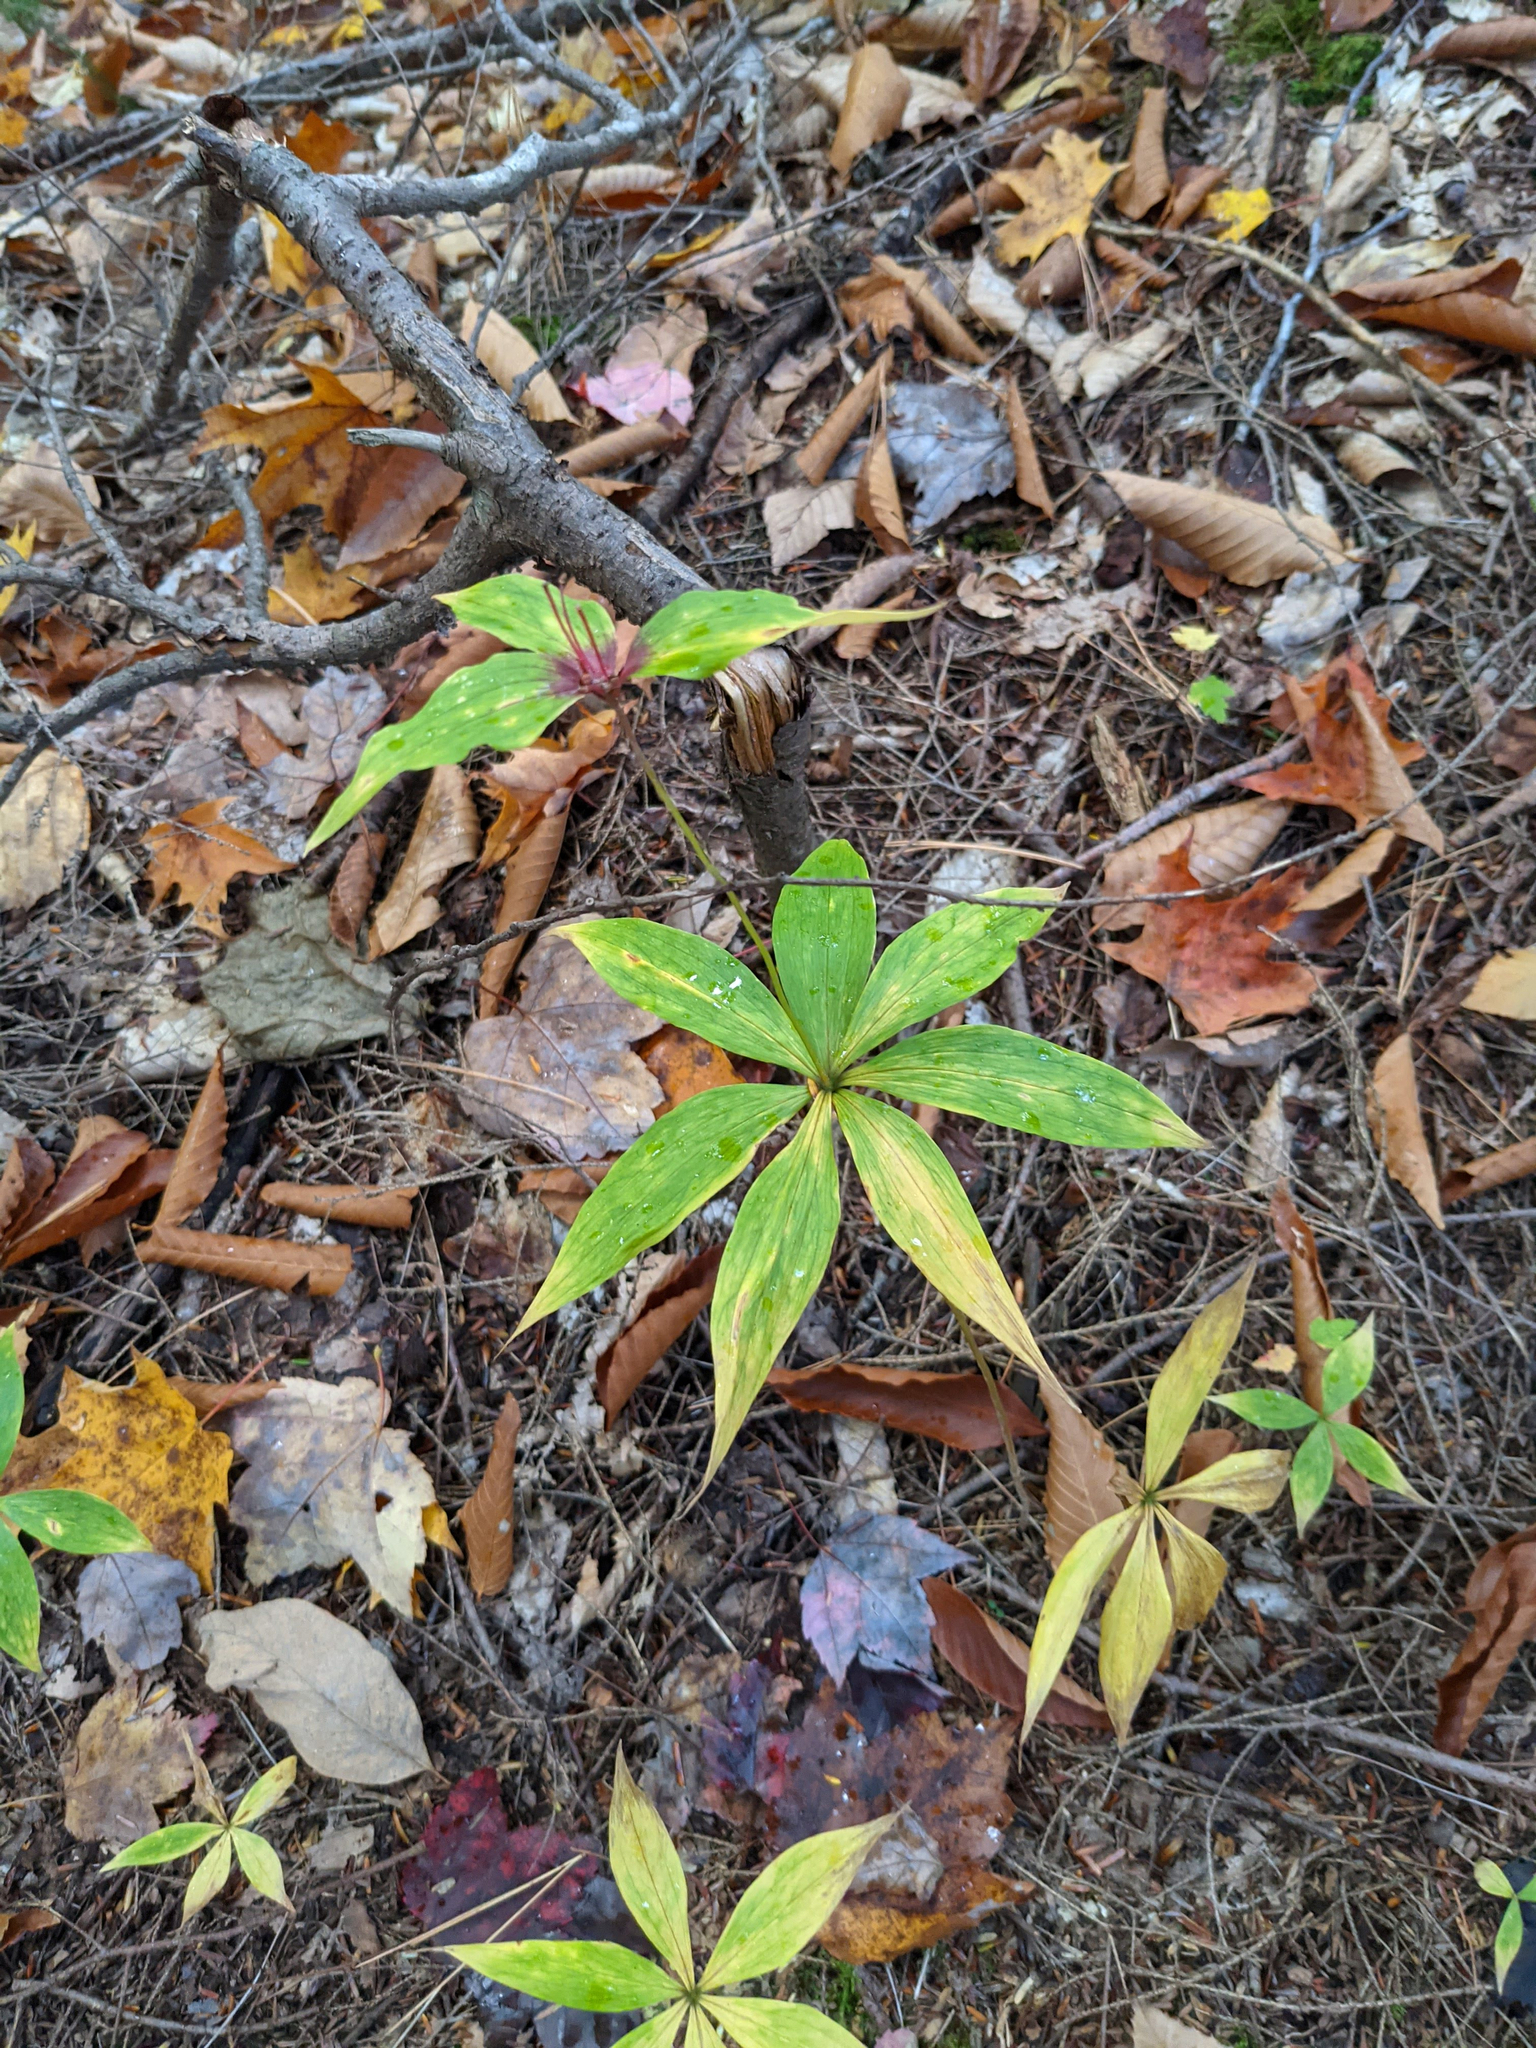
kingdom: Plantae
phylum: Tracheophyta
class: Liliopsida
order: Liliales
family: Liliaceae
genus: Medeola
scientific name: Medeola virginiana
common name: Indian cucumber-root
